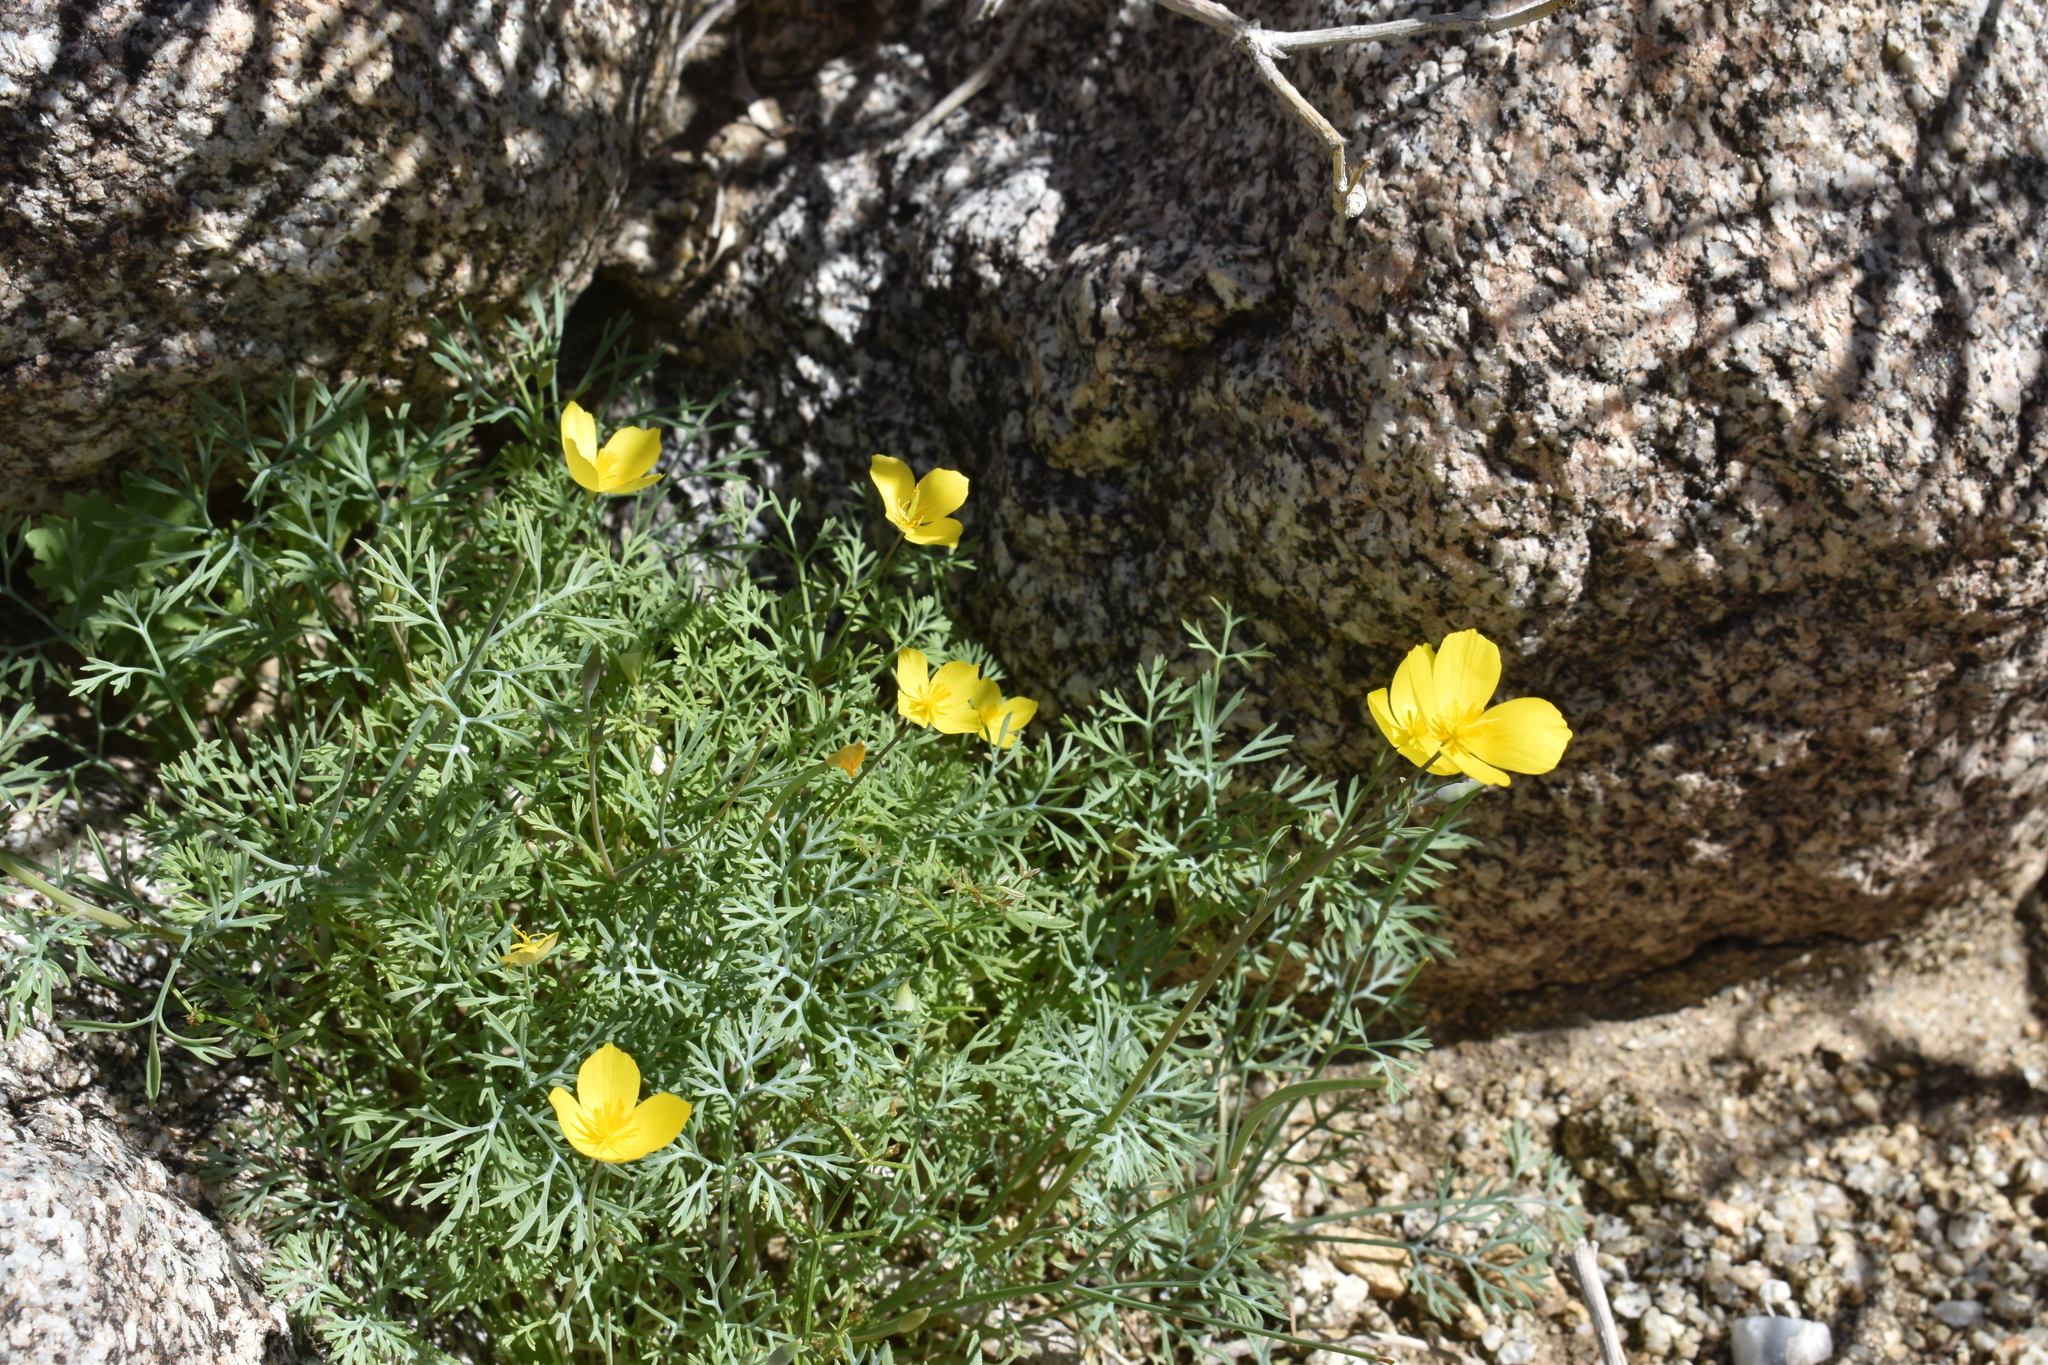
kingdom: Plantae
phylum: Tracheophyta
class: Magnoliopsida
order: Ranunculales
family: Papaveraceae
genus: Eschscholzia
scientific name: Eschscholzia minutiflora
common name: Small-flower california-poppy
